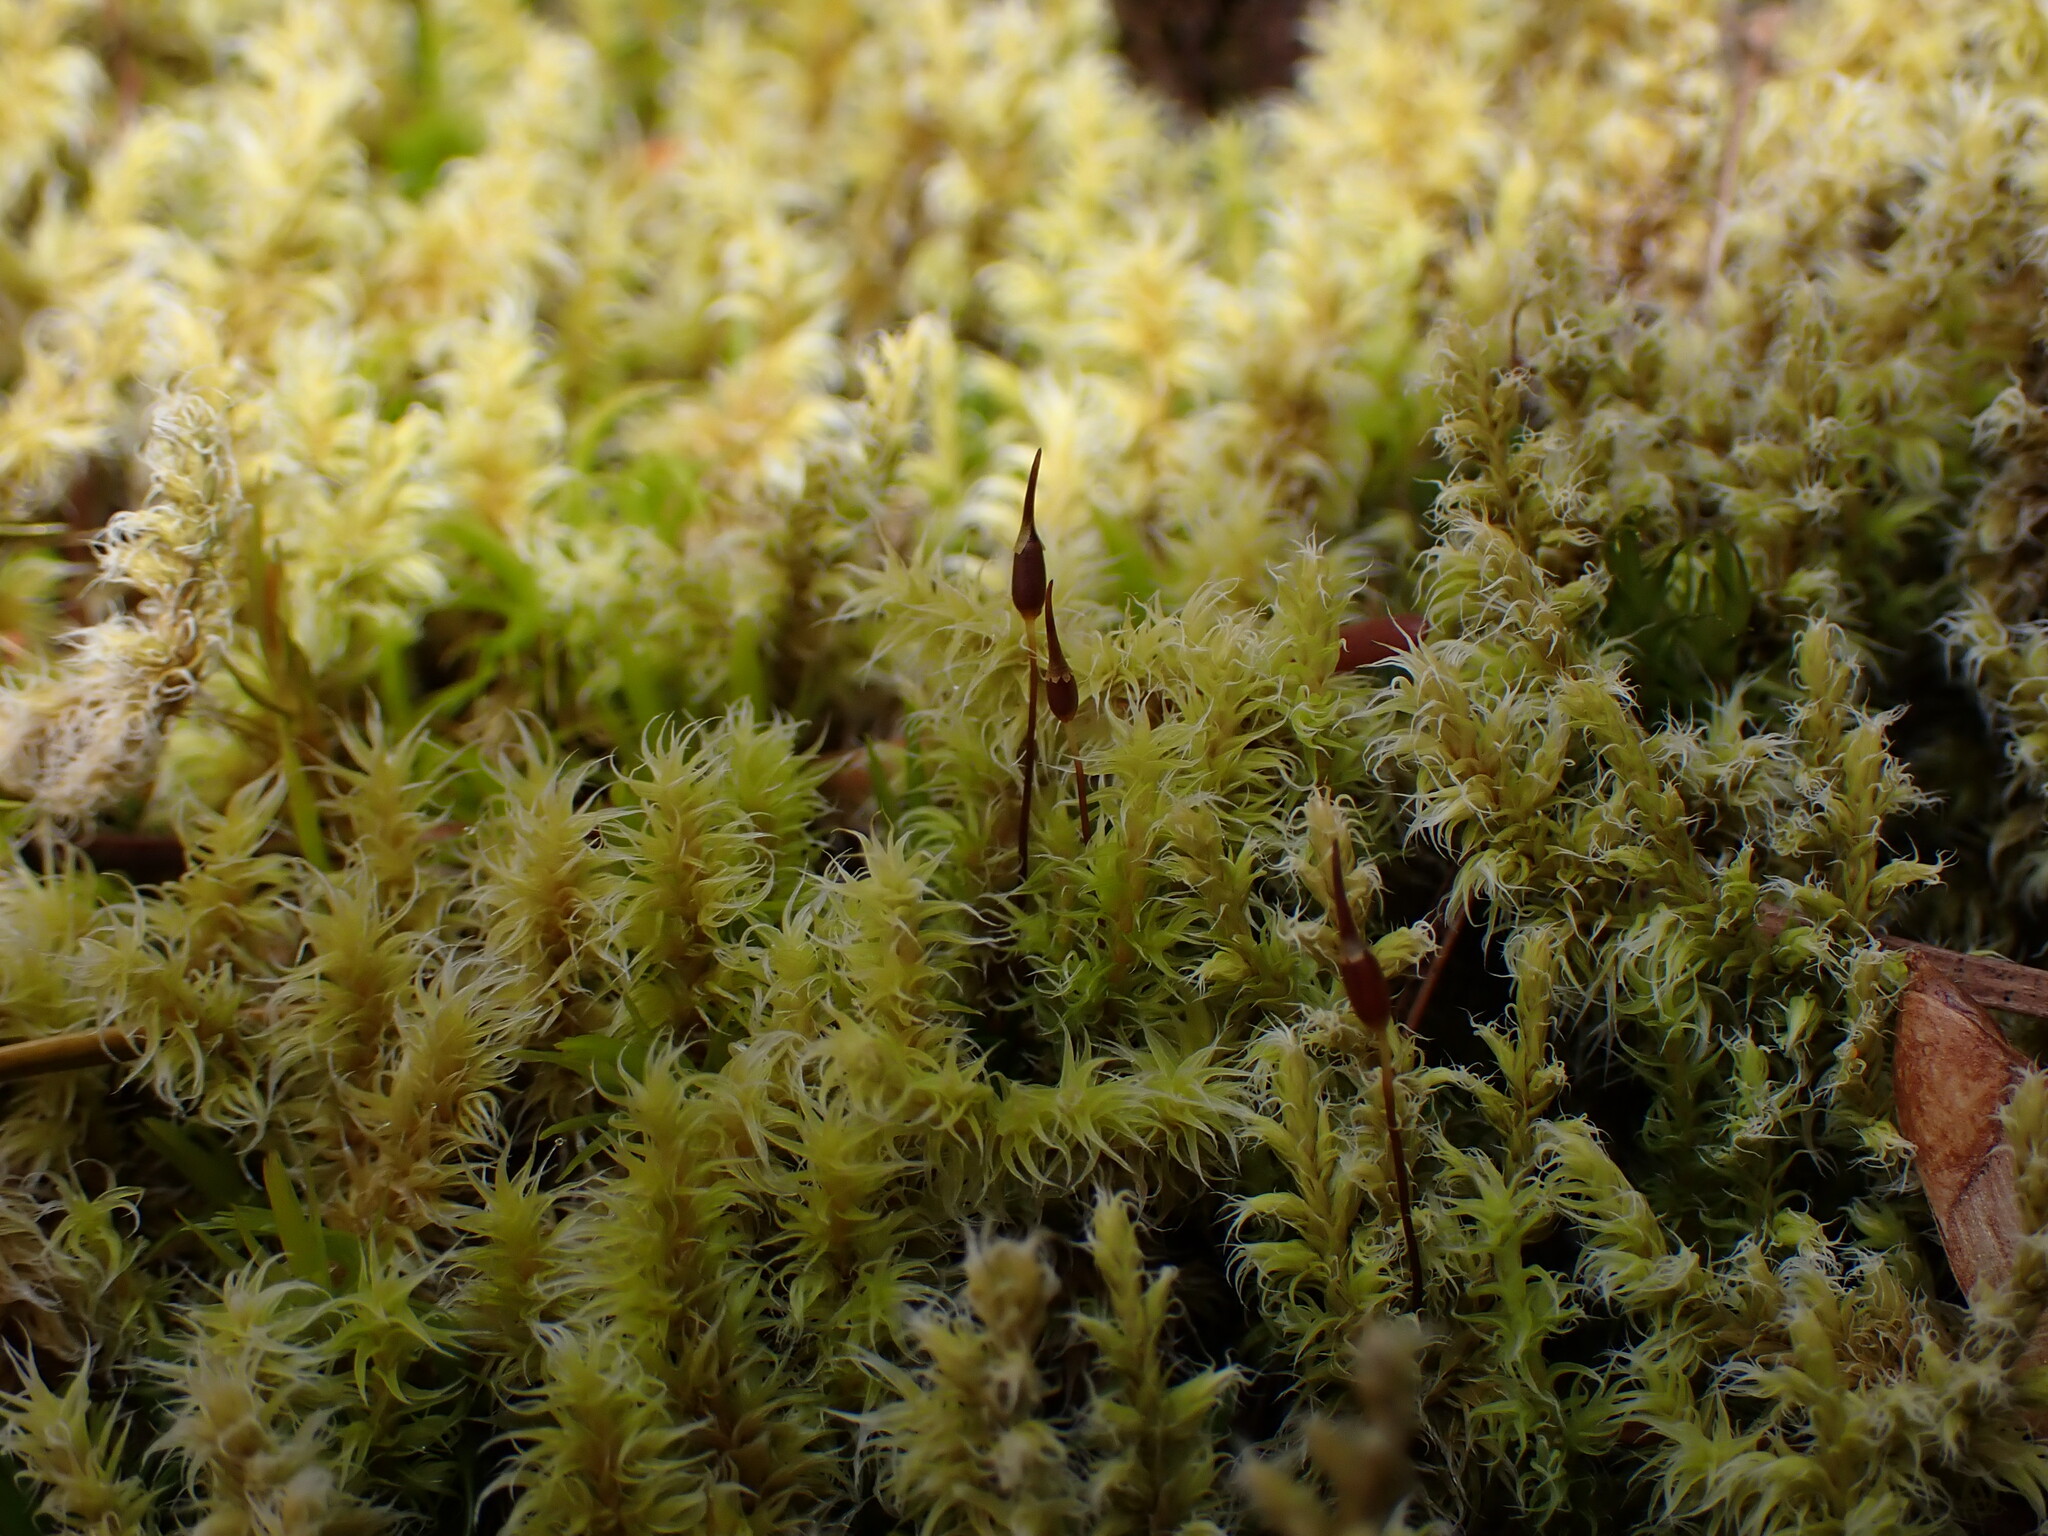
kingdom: Plantae
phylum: Bryophyta
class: Bryopsida
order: Grimmiales
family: Grimmiaceae
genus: Niphotrichum
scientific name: Niphotrichum elongatum
